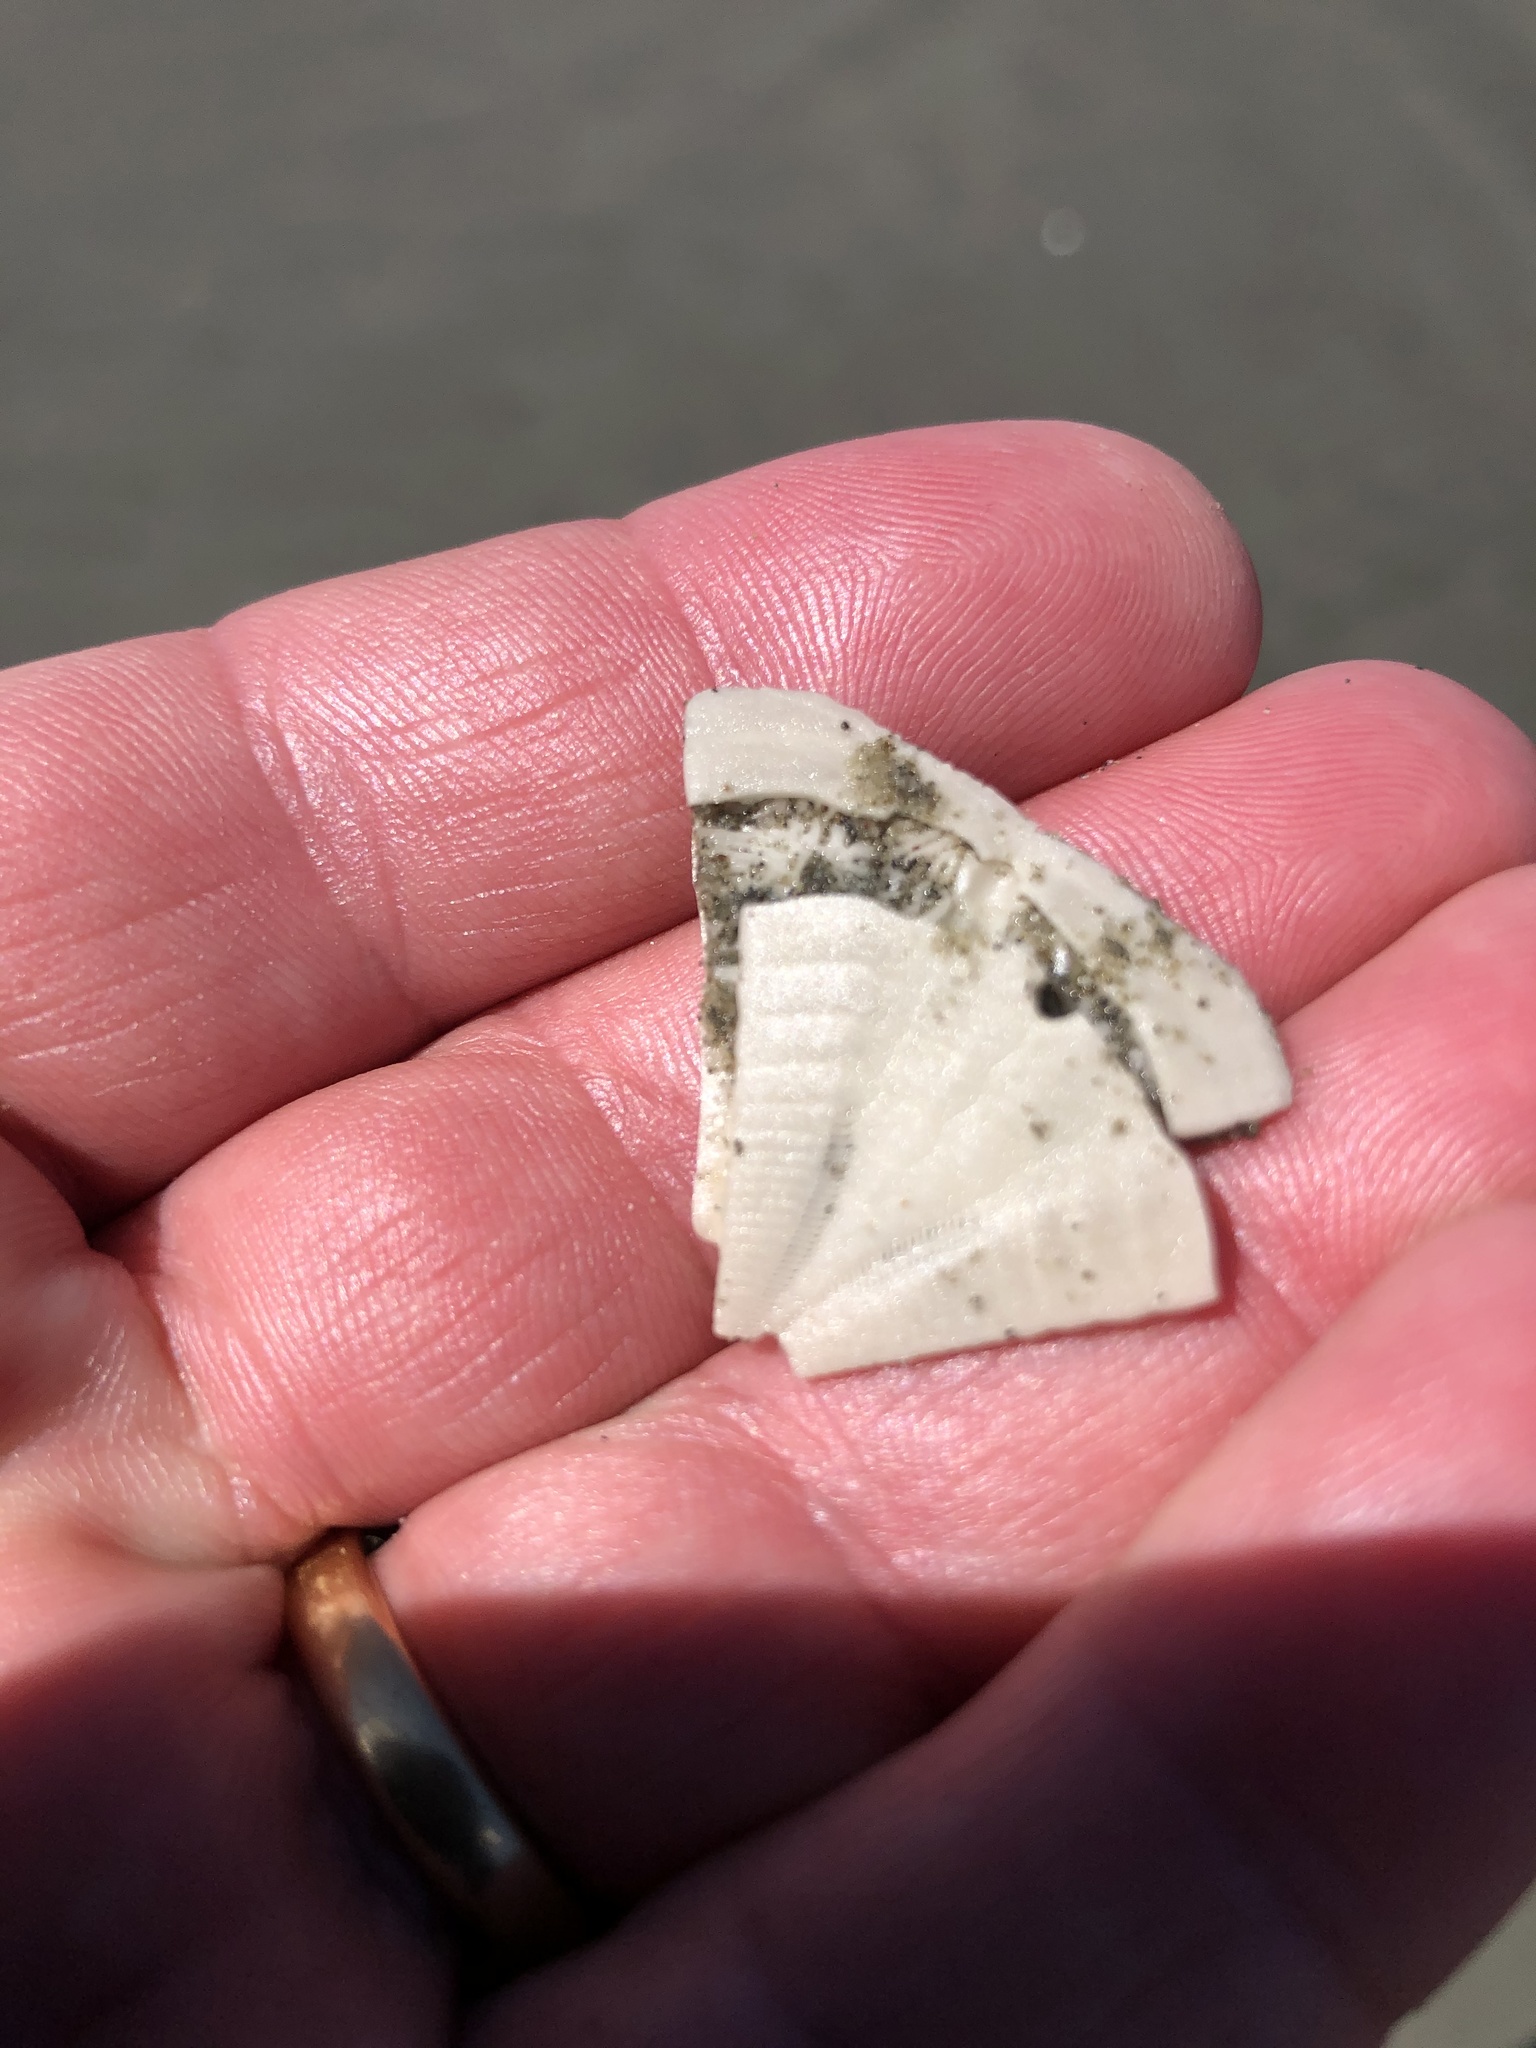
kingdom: Animalia
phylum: Echinodermata
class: Echinoidea
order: Clypeasteroida
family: Clypeasteridae
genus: Fellaster
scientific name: Fellaster zelandiae
